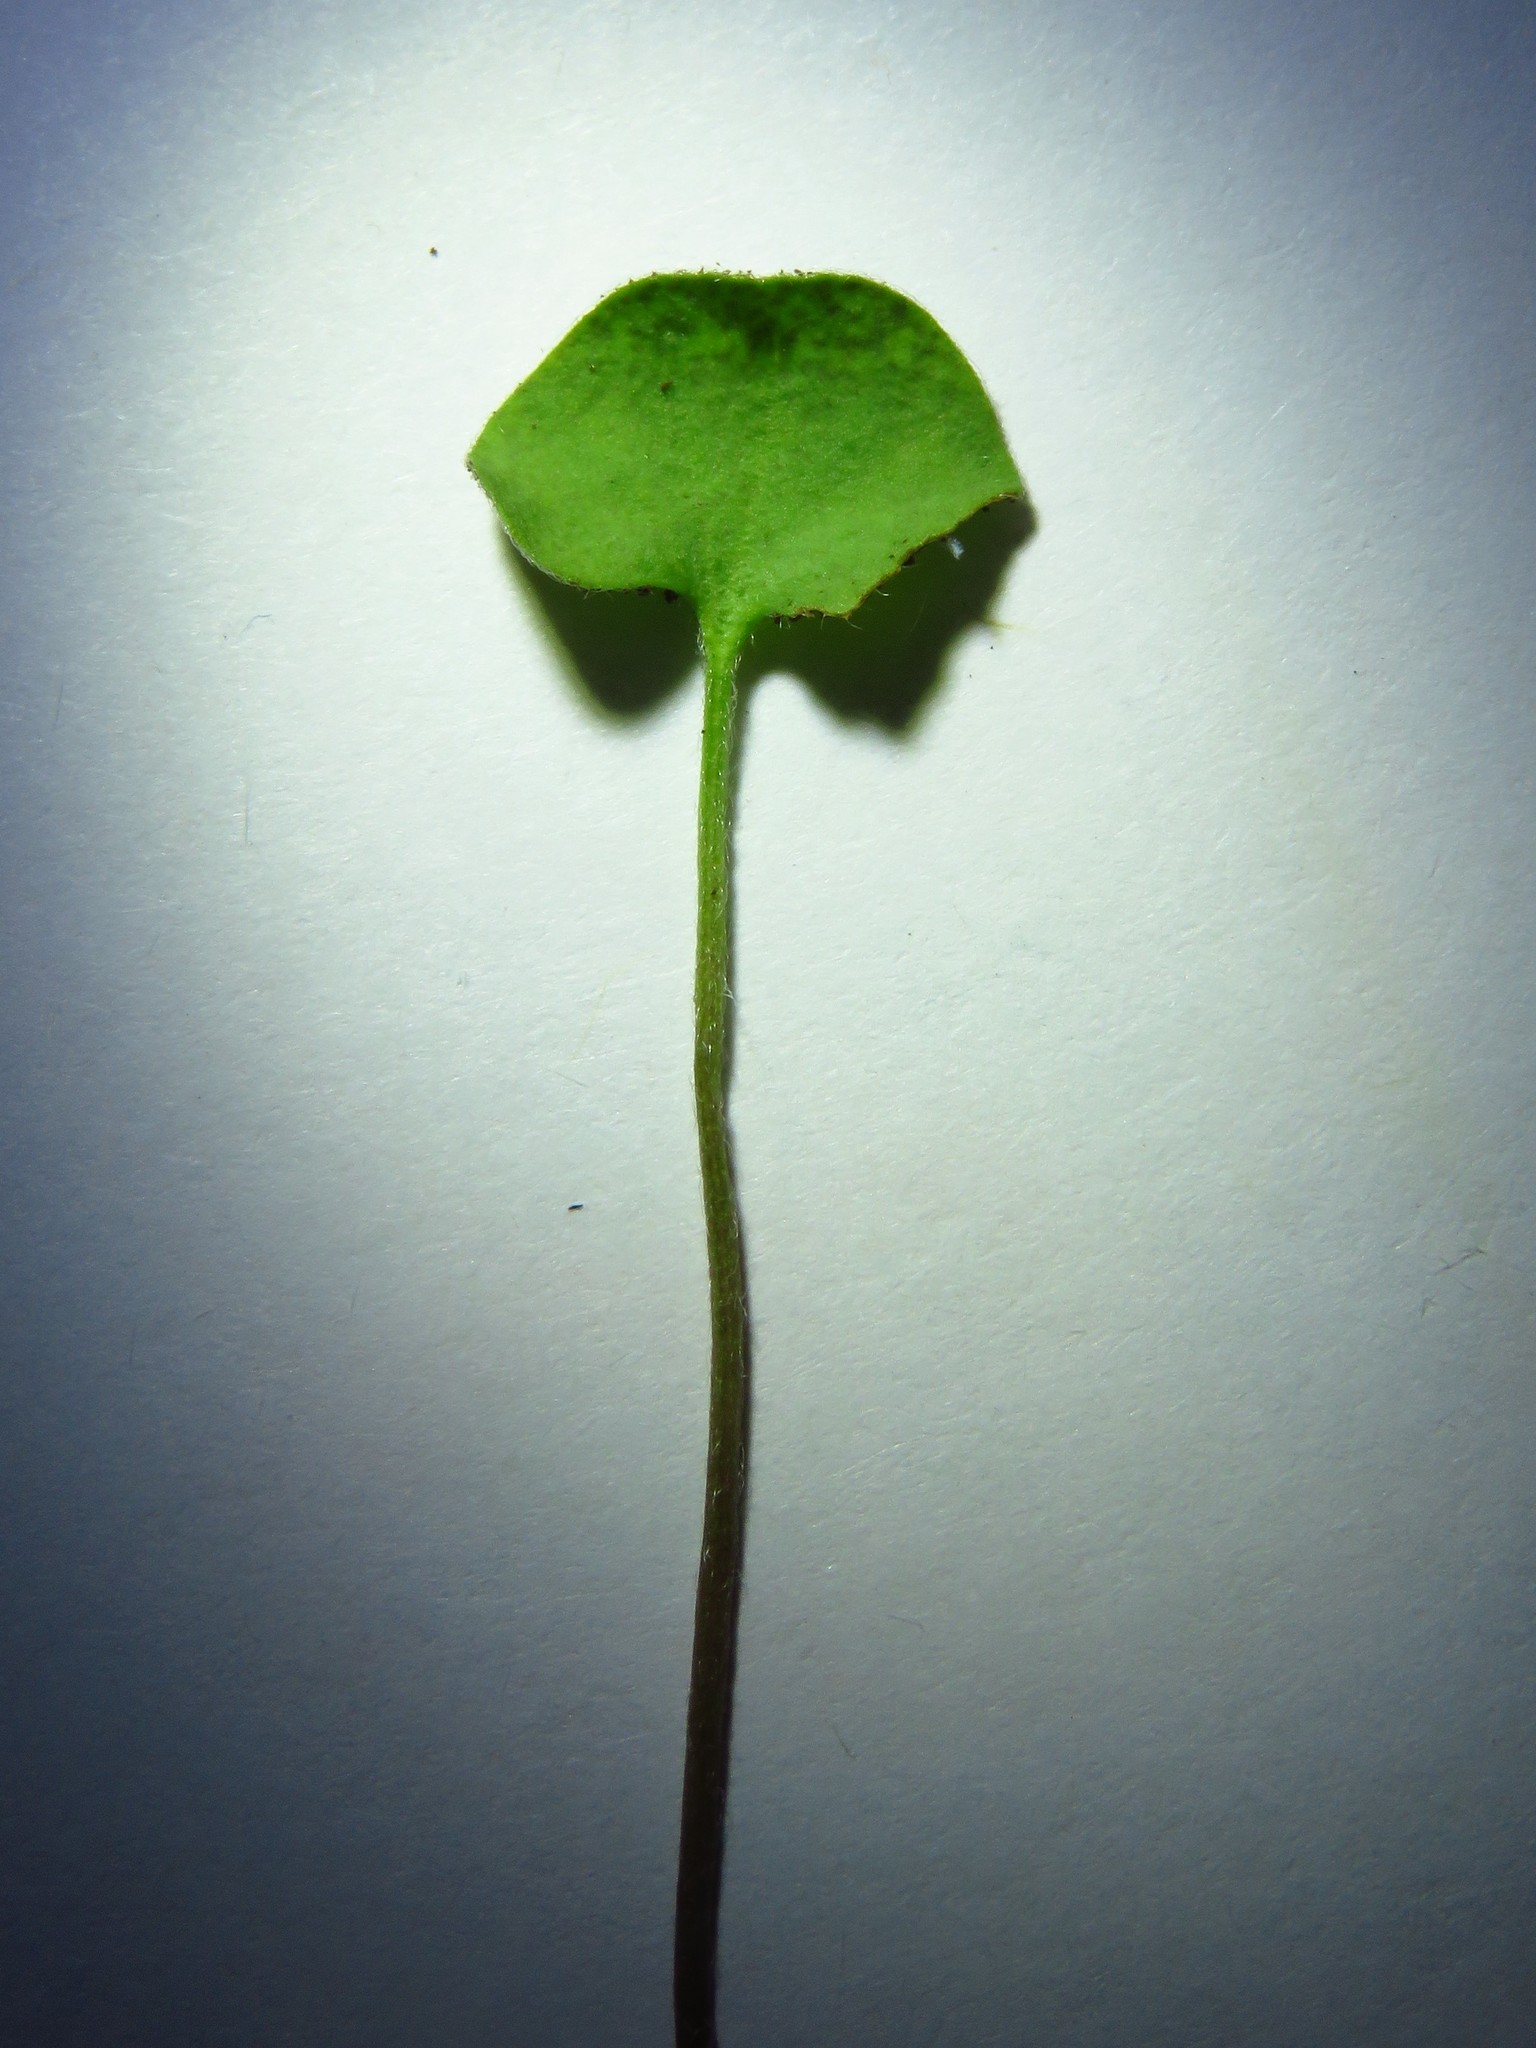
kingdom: Fungi
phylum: Basidiomycota
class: Pucciniomycetes
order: Pucciniales
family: Pucciniaceae
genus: Puccinia
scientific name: Puccinia dichondrae
